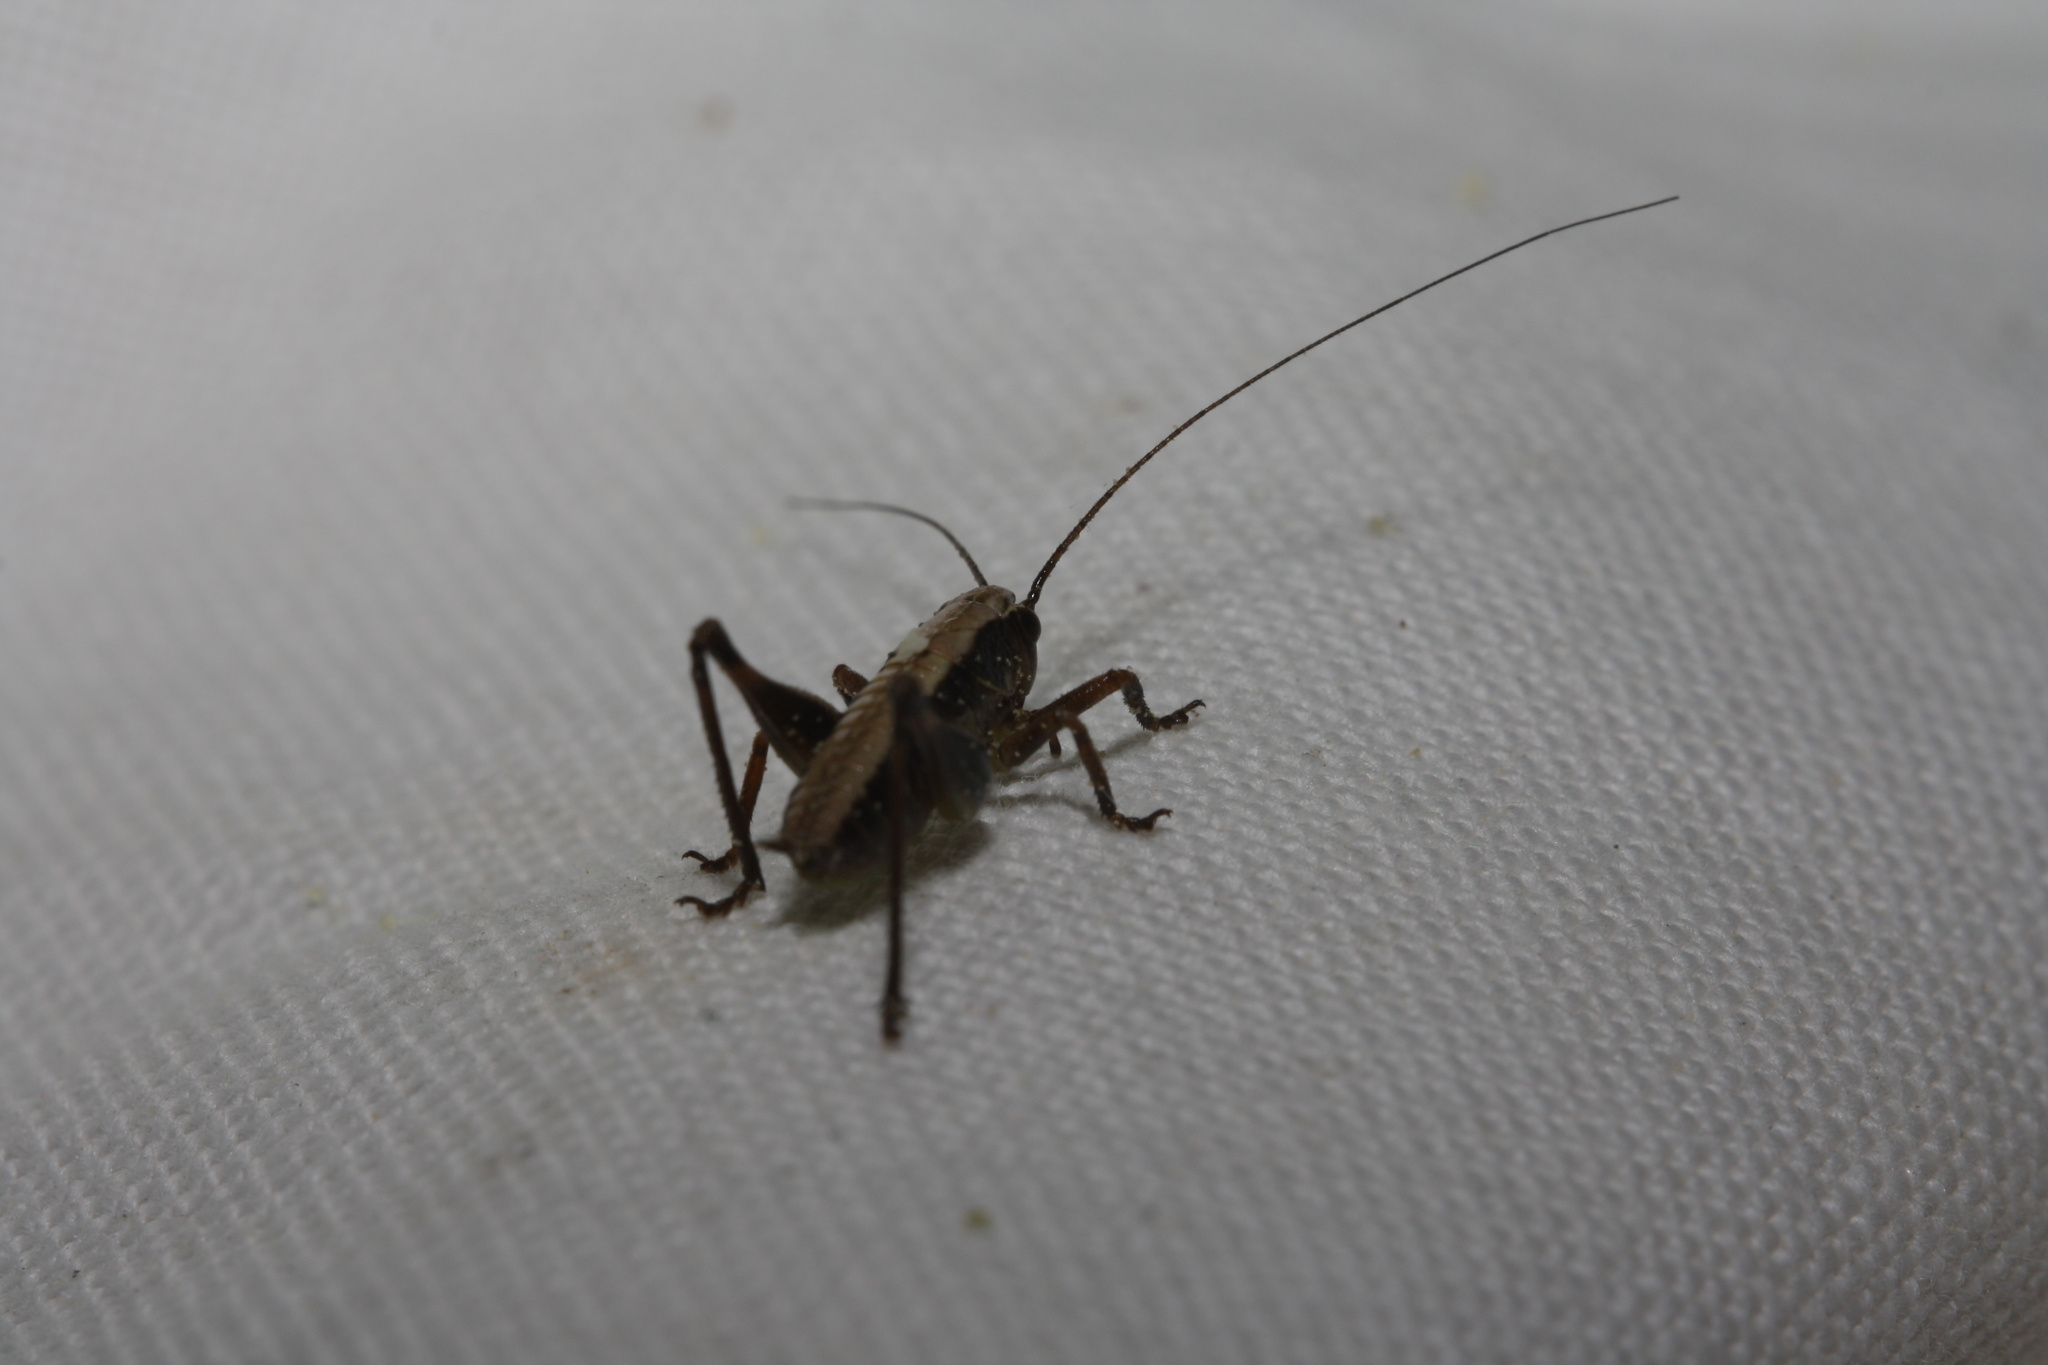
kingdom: Animalia
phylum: Arthropoda
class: Insecta
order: Orthoptera
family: Tettigoniidae
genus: Pholidoptera
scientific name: Pholidoptera griseoaptera
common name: Dark bush-cricket
